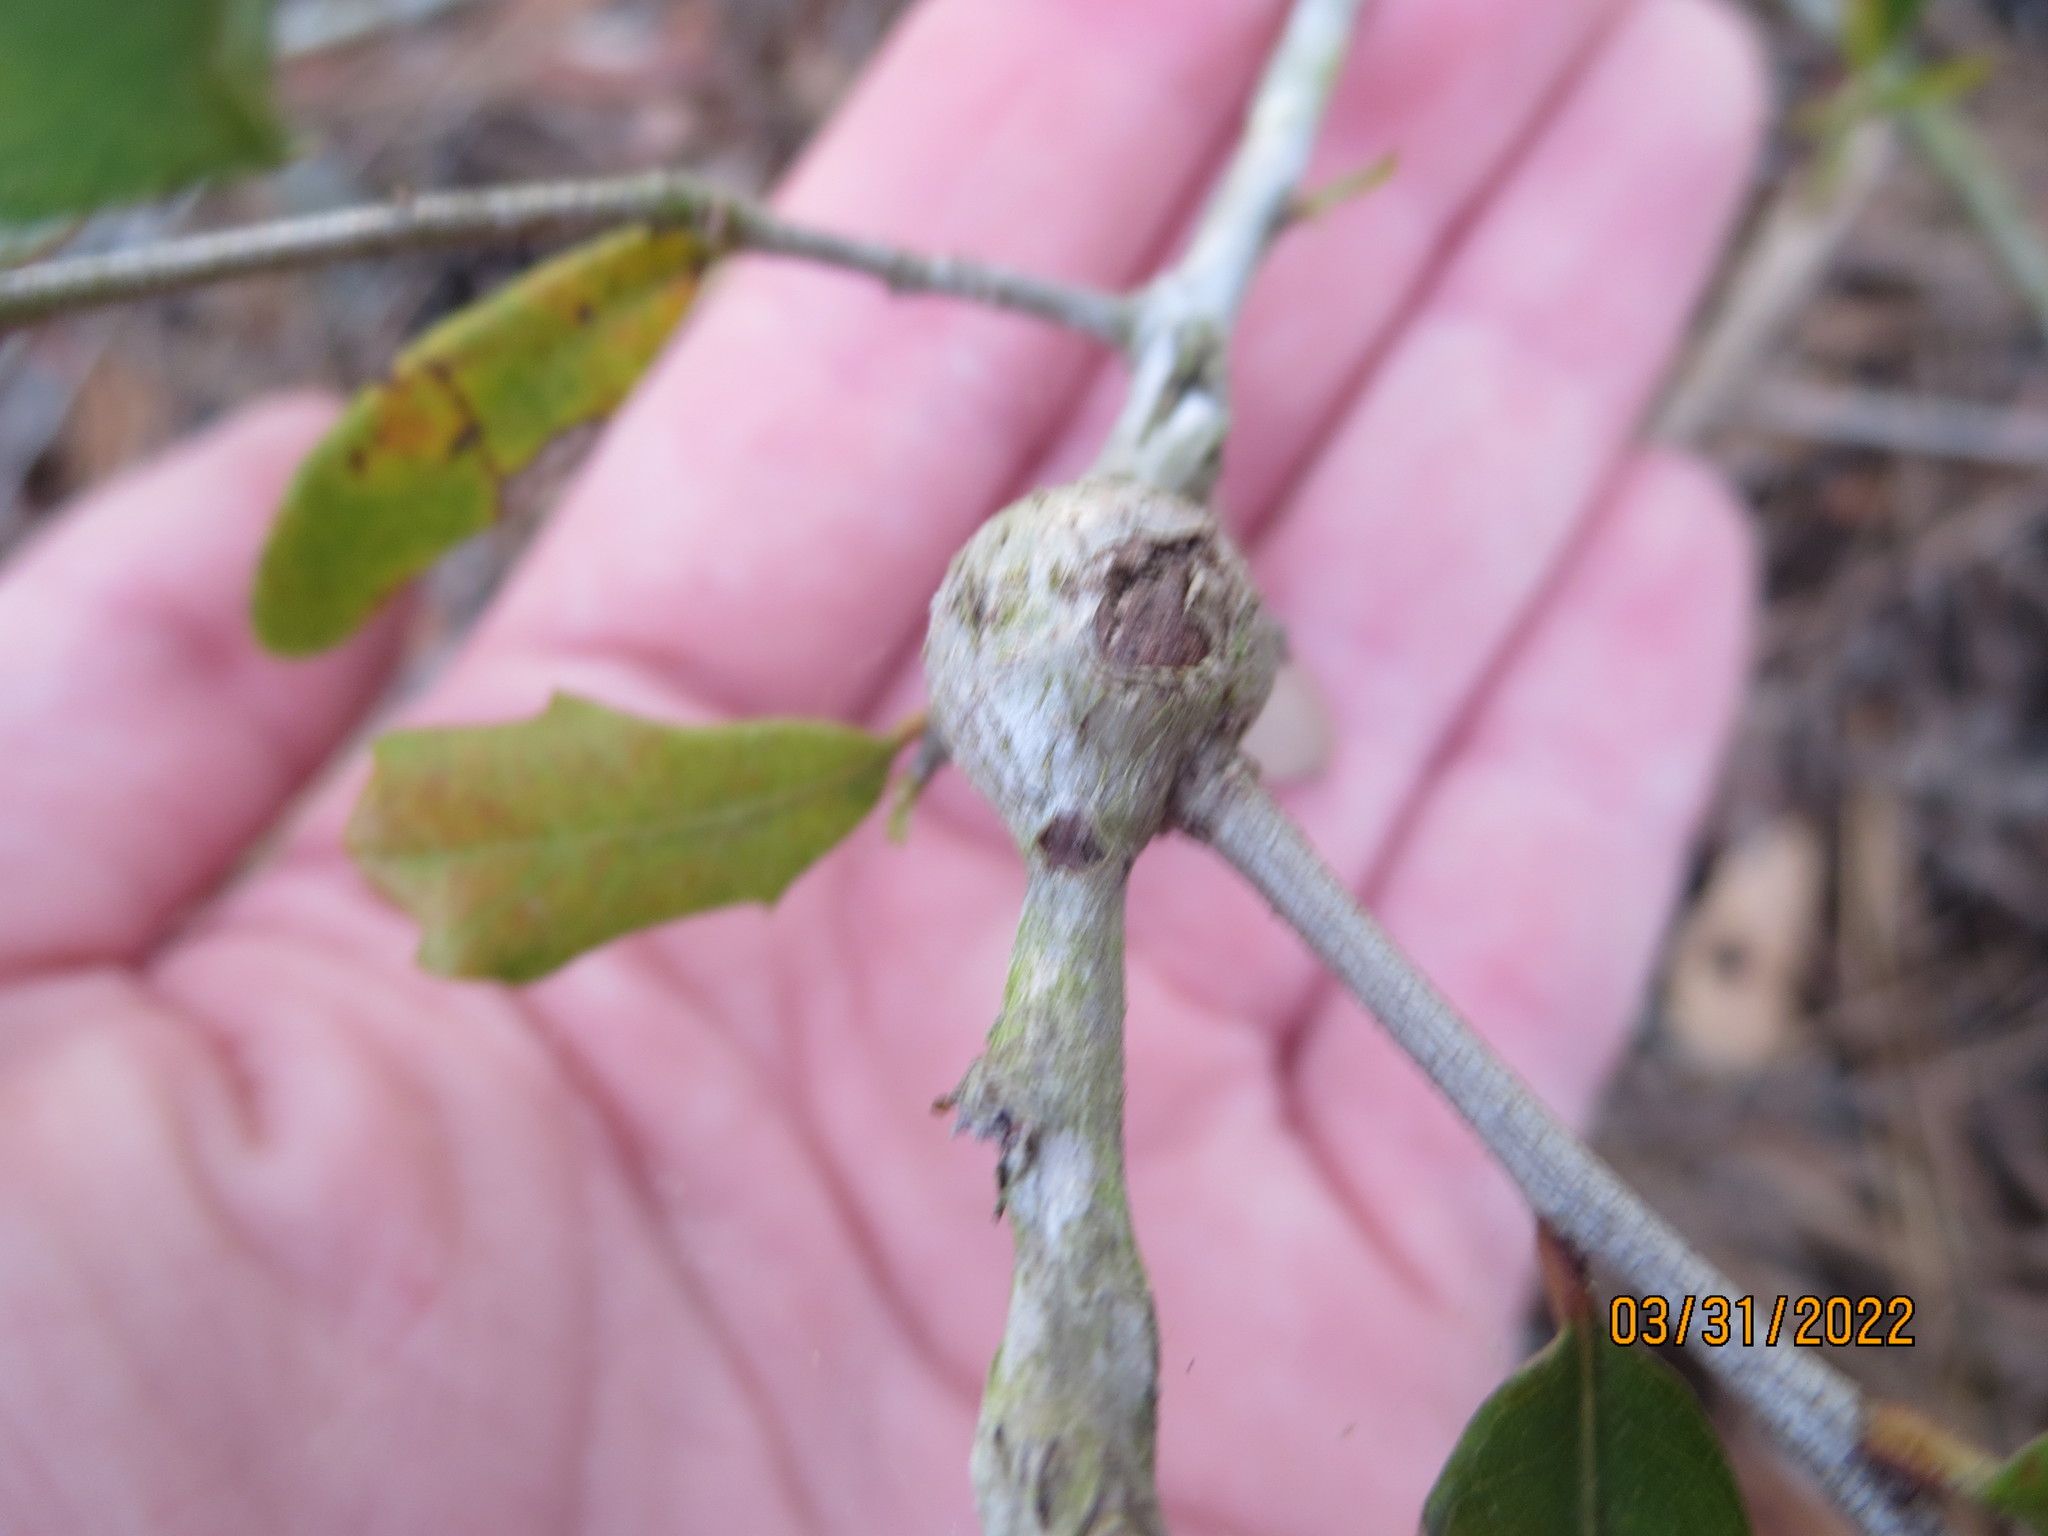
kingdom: Animalia
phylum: Arthropoda
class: Insecta
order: Hymenoptera
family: Cynipidae
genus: Callirhytis
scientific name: Callirhytis
